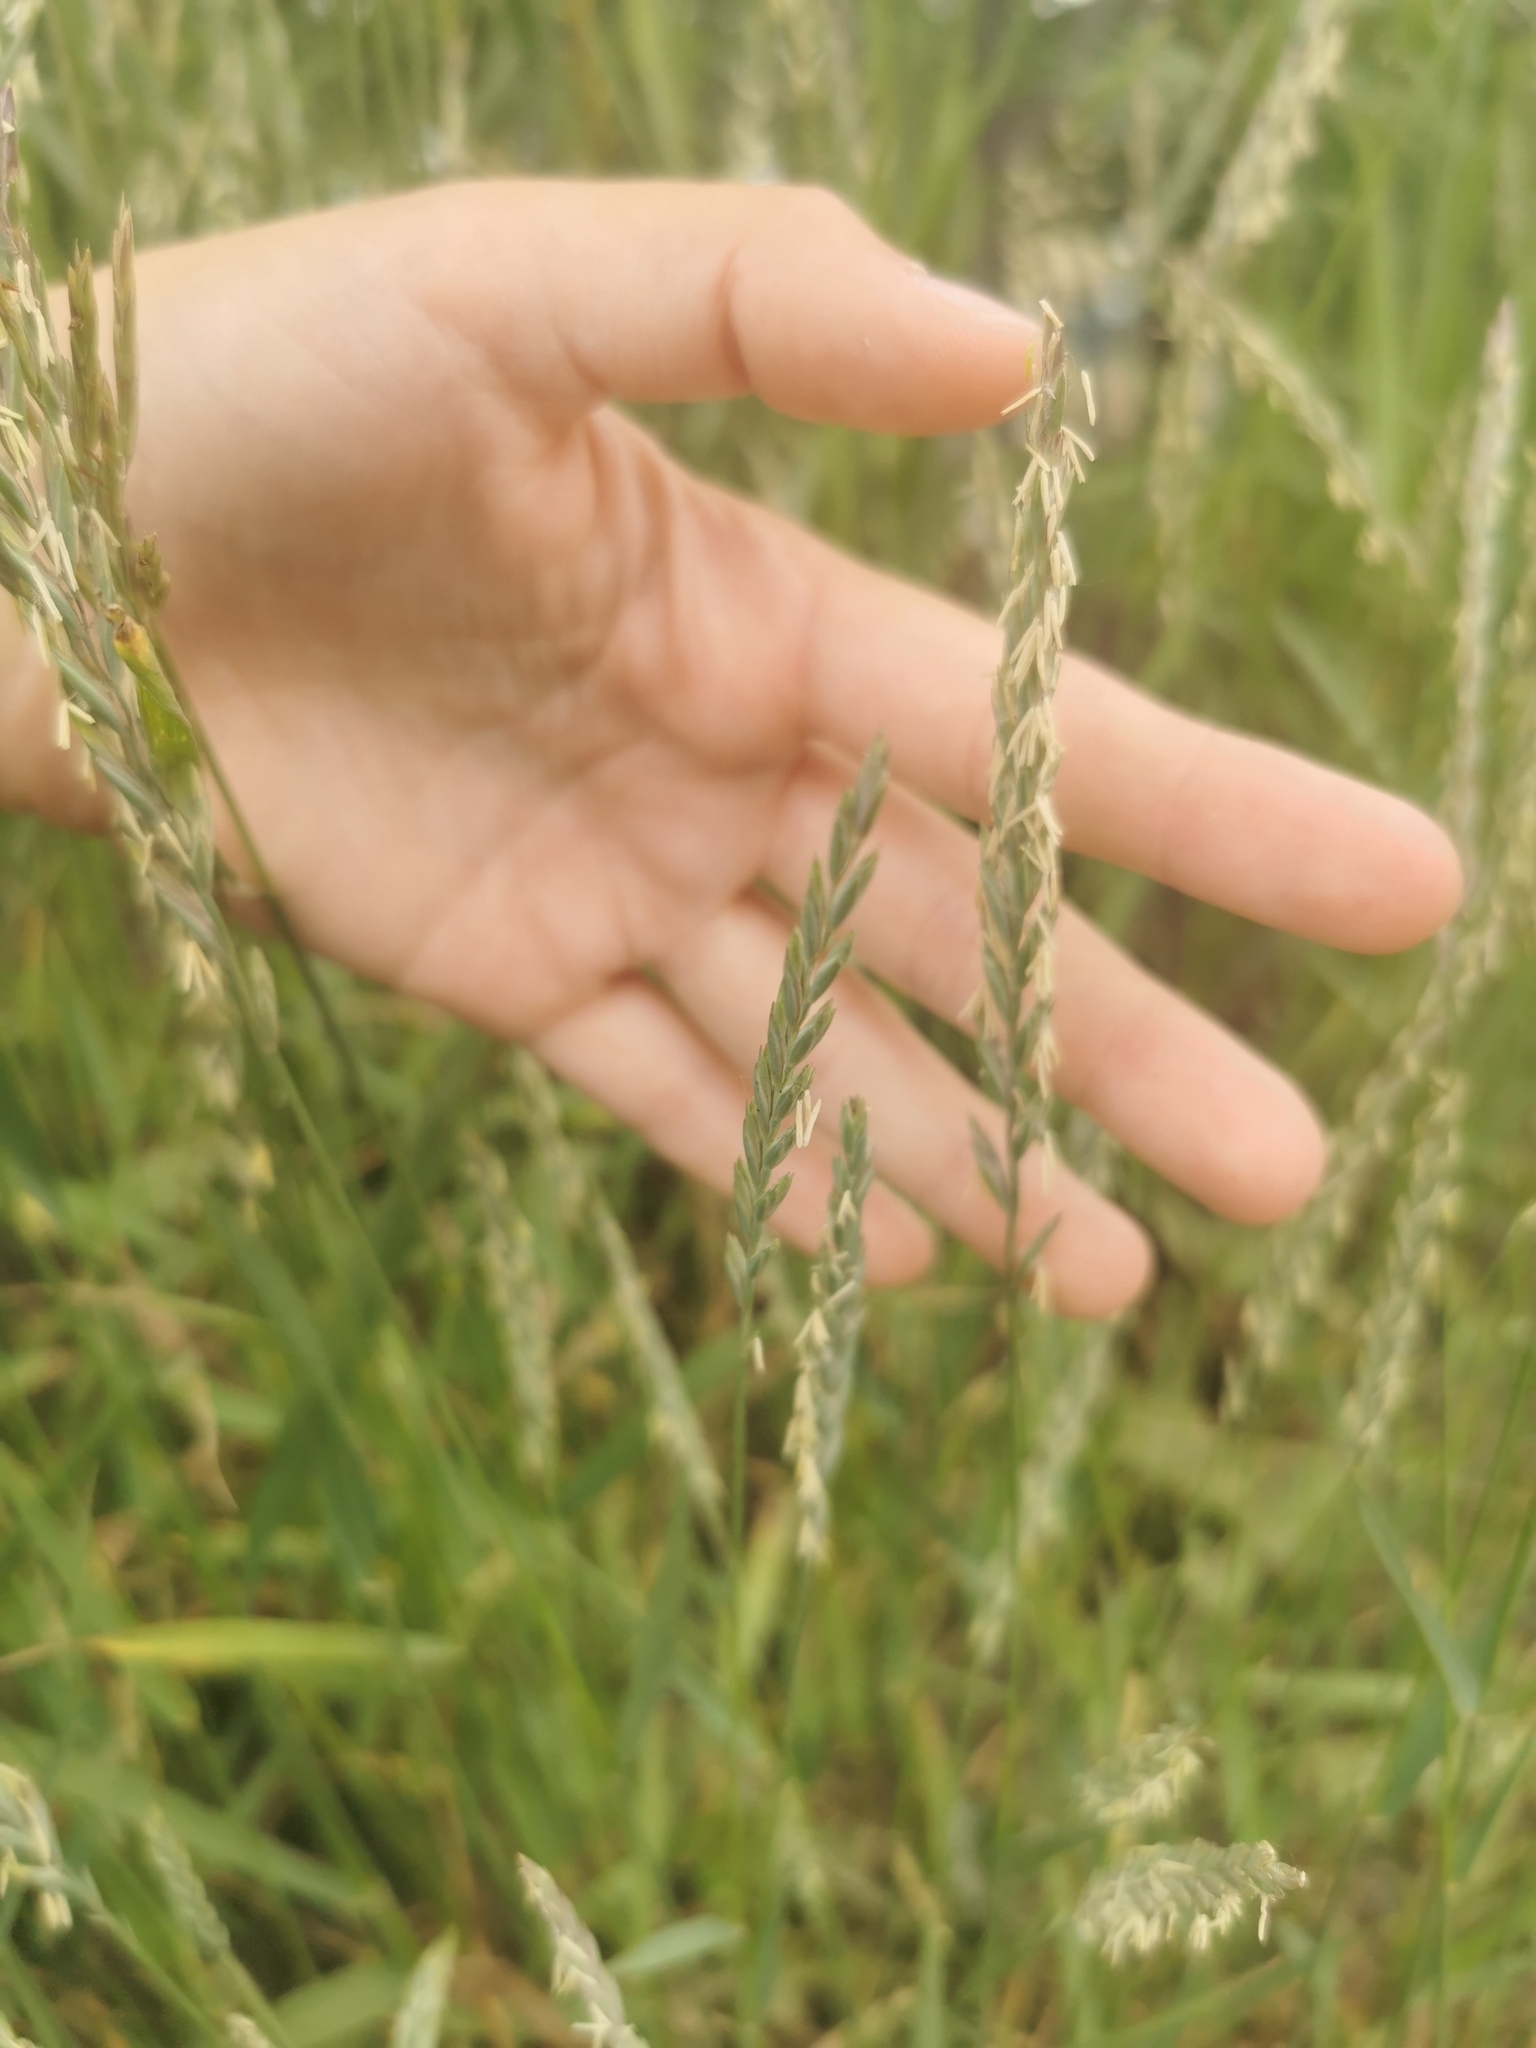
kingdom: Plantae
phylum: Tracheophyta
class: Liliopsida
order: Poales
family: Poaceae
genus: Elymus
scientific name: Elymus repens
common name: Quackgrass
